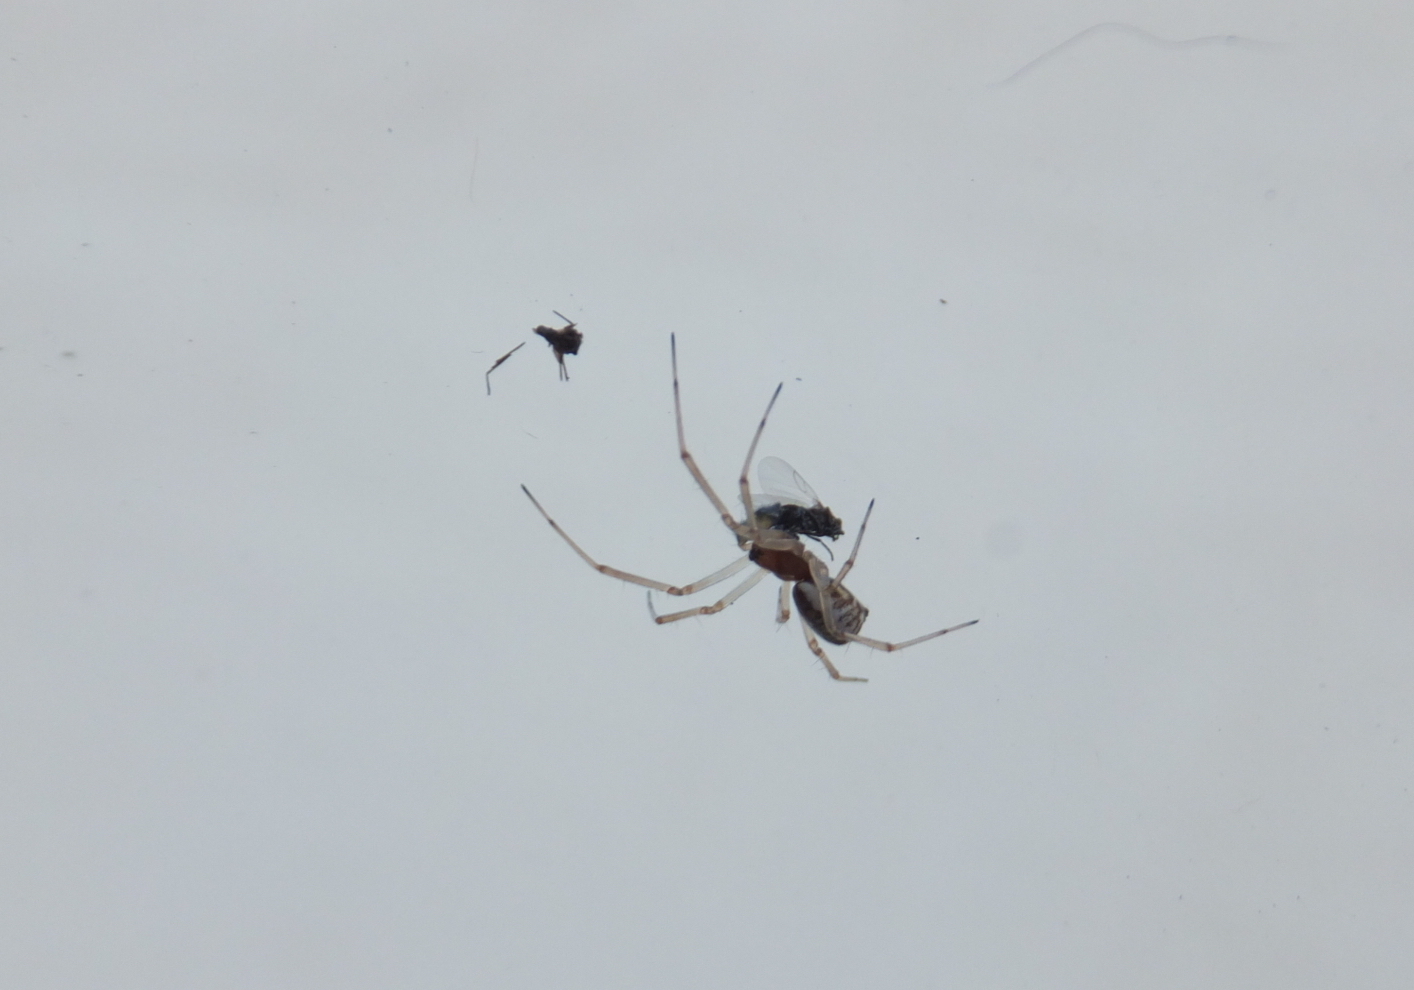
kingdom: Animalia
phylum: Arthropoda
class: Arachnida
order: Araneae
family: Linyphiidae
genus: Frontinellina
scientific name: Frontinellina frutetorum
